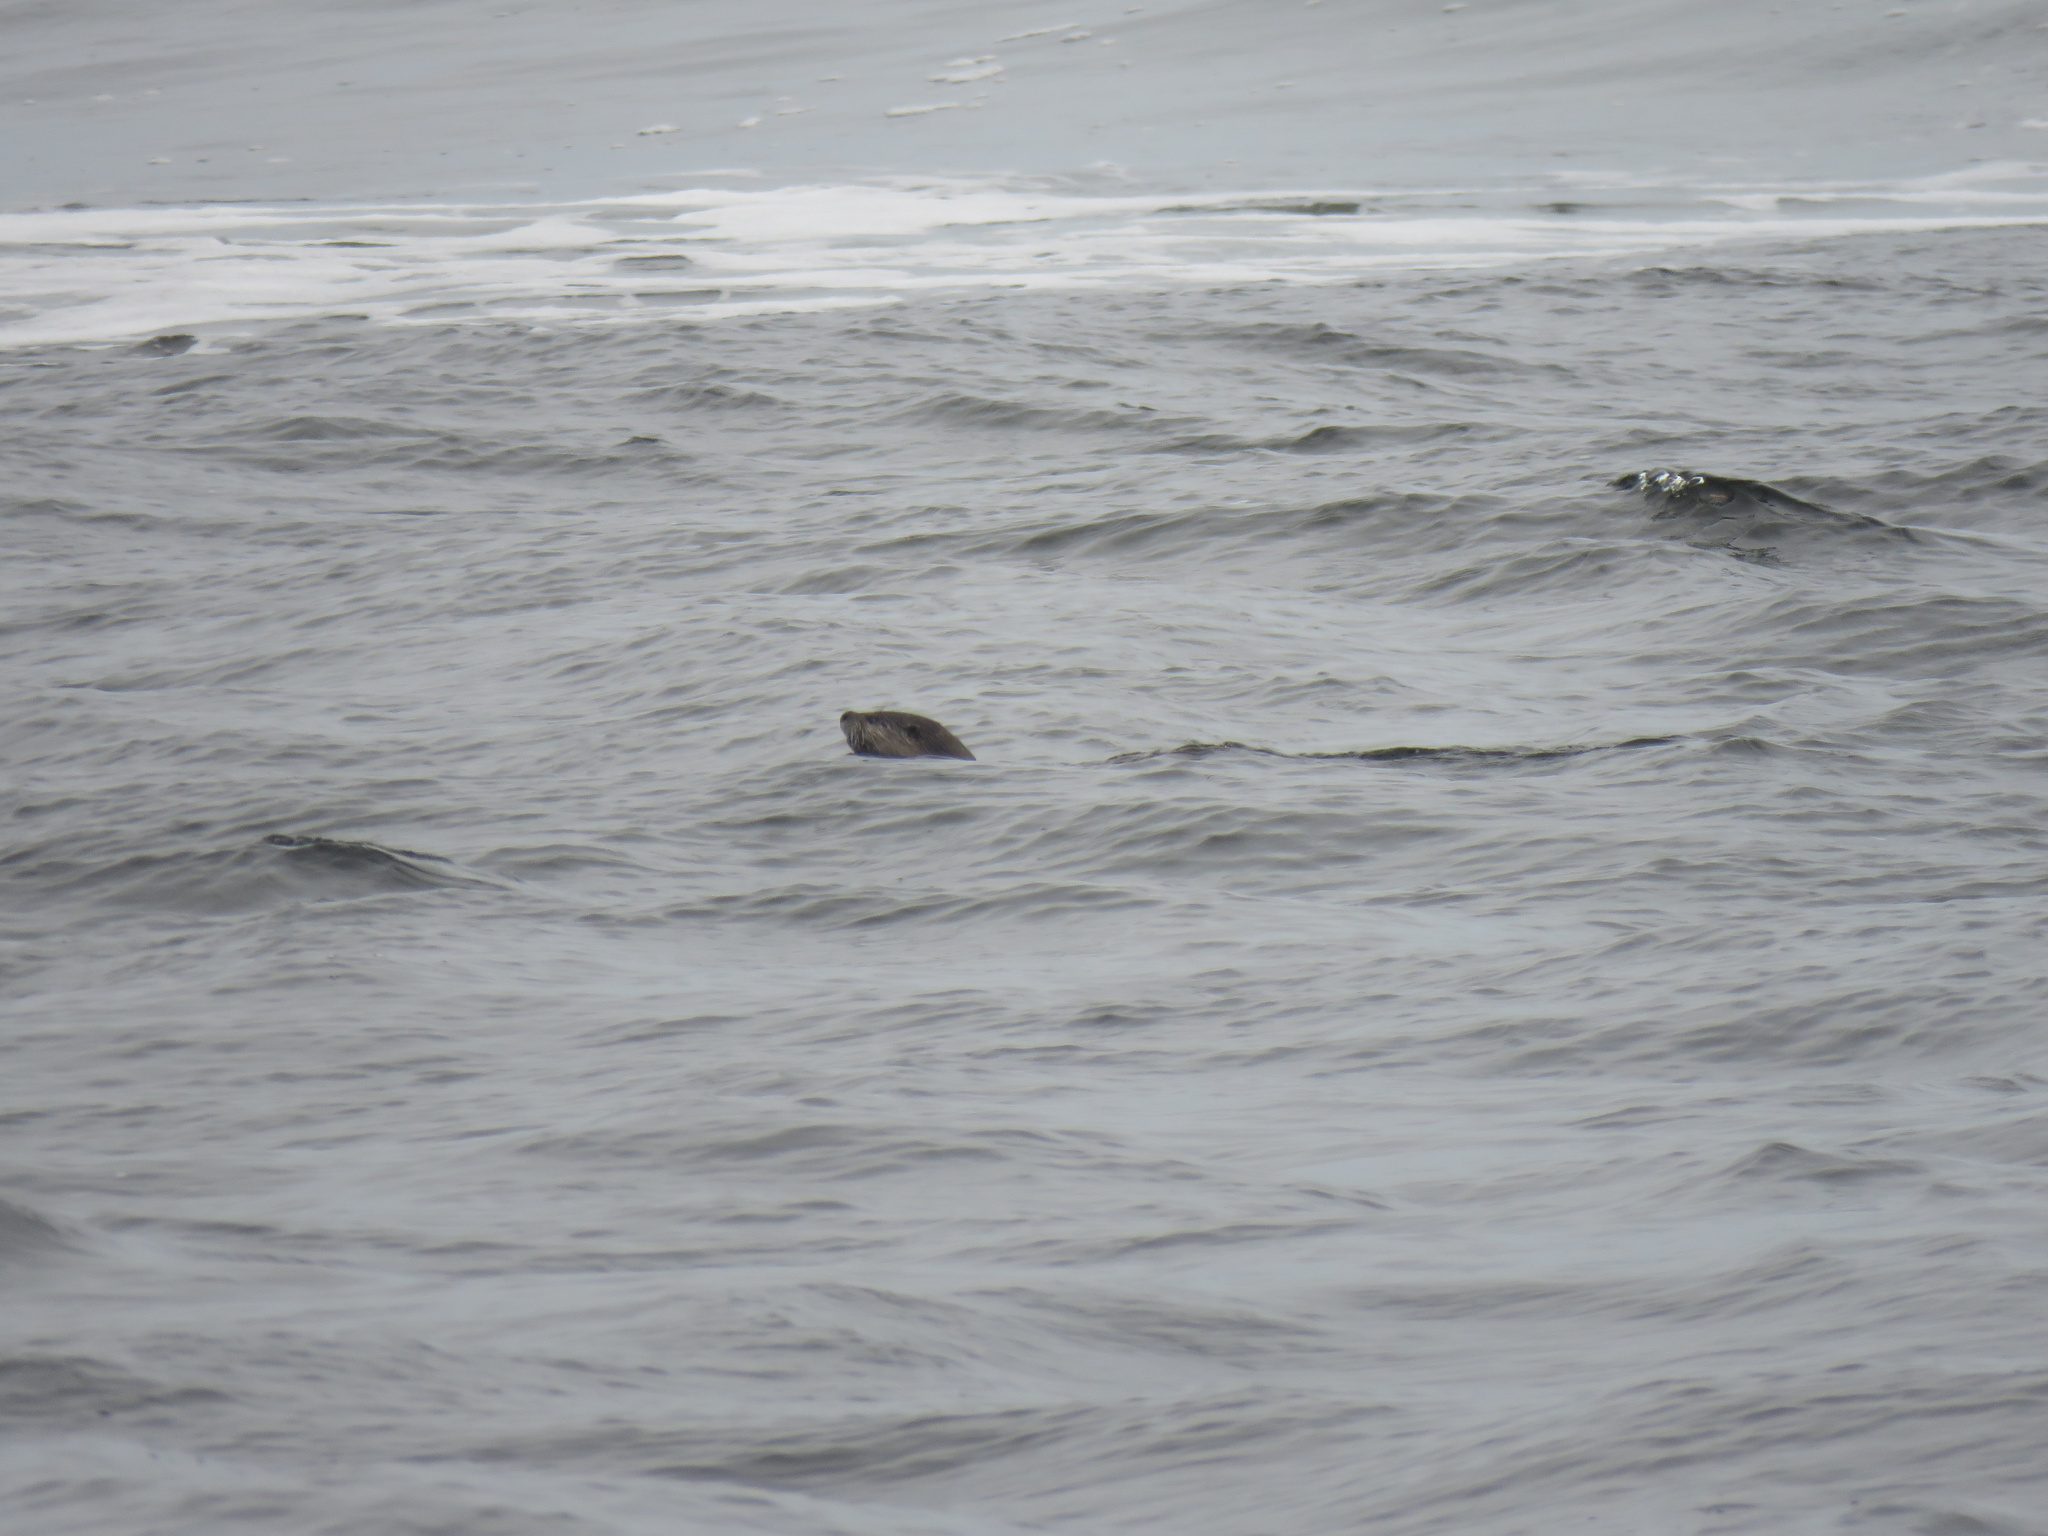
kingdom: Animalia
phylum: Chordata
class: Mammalia
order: Carnivora
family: Mustelidae
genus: Lontra
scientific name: Lontra canadensis
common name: North american river otter
